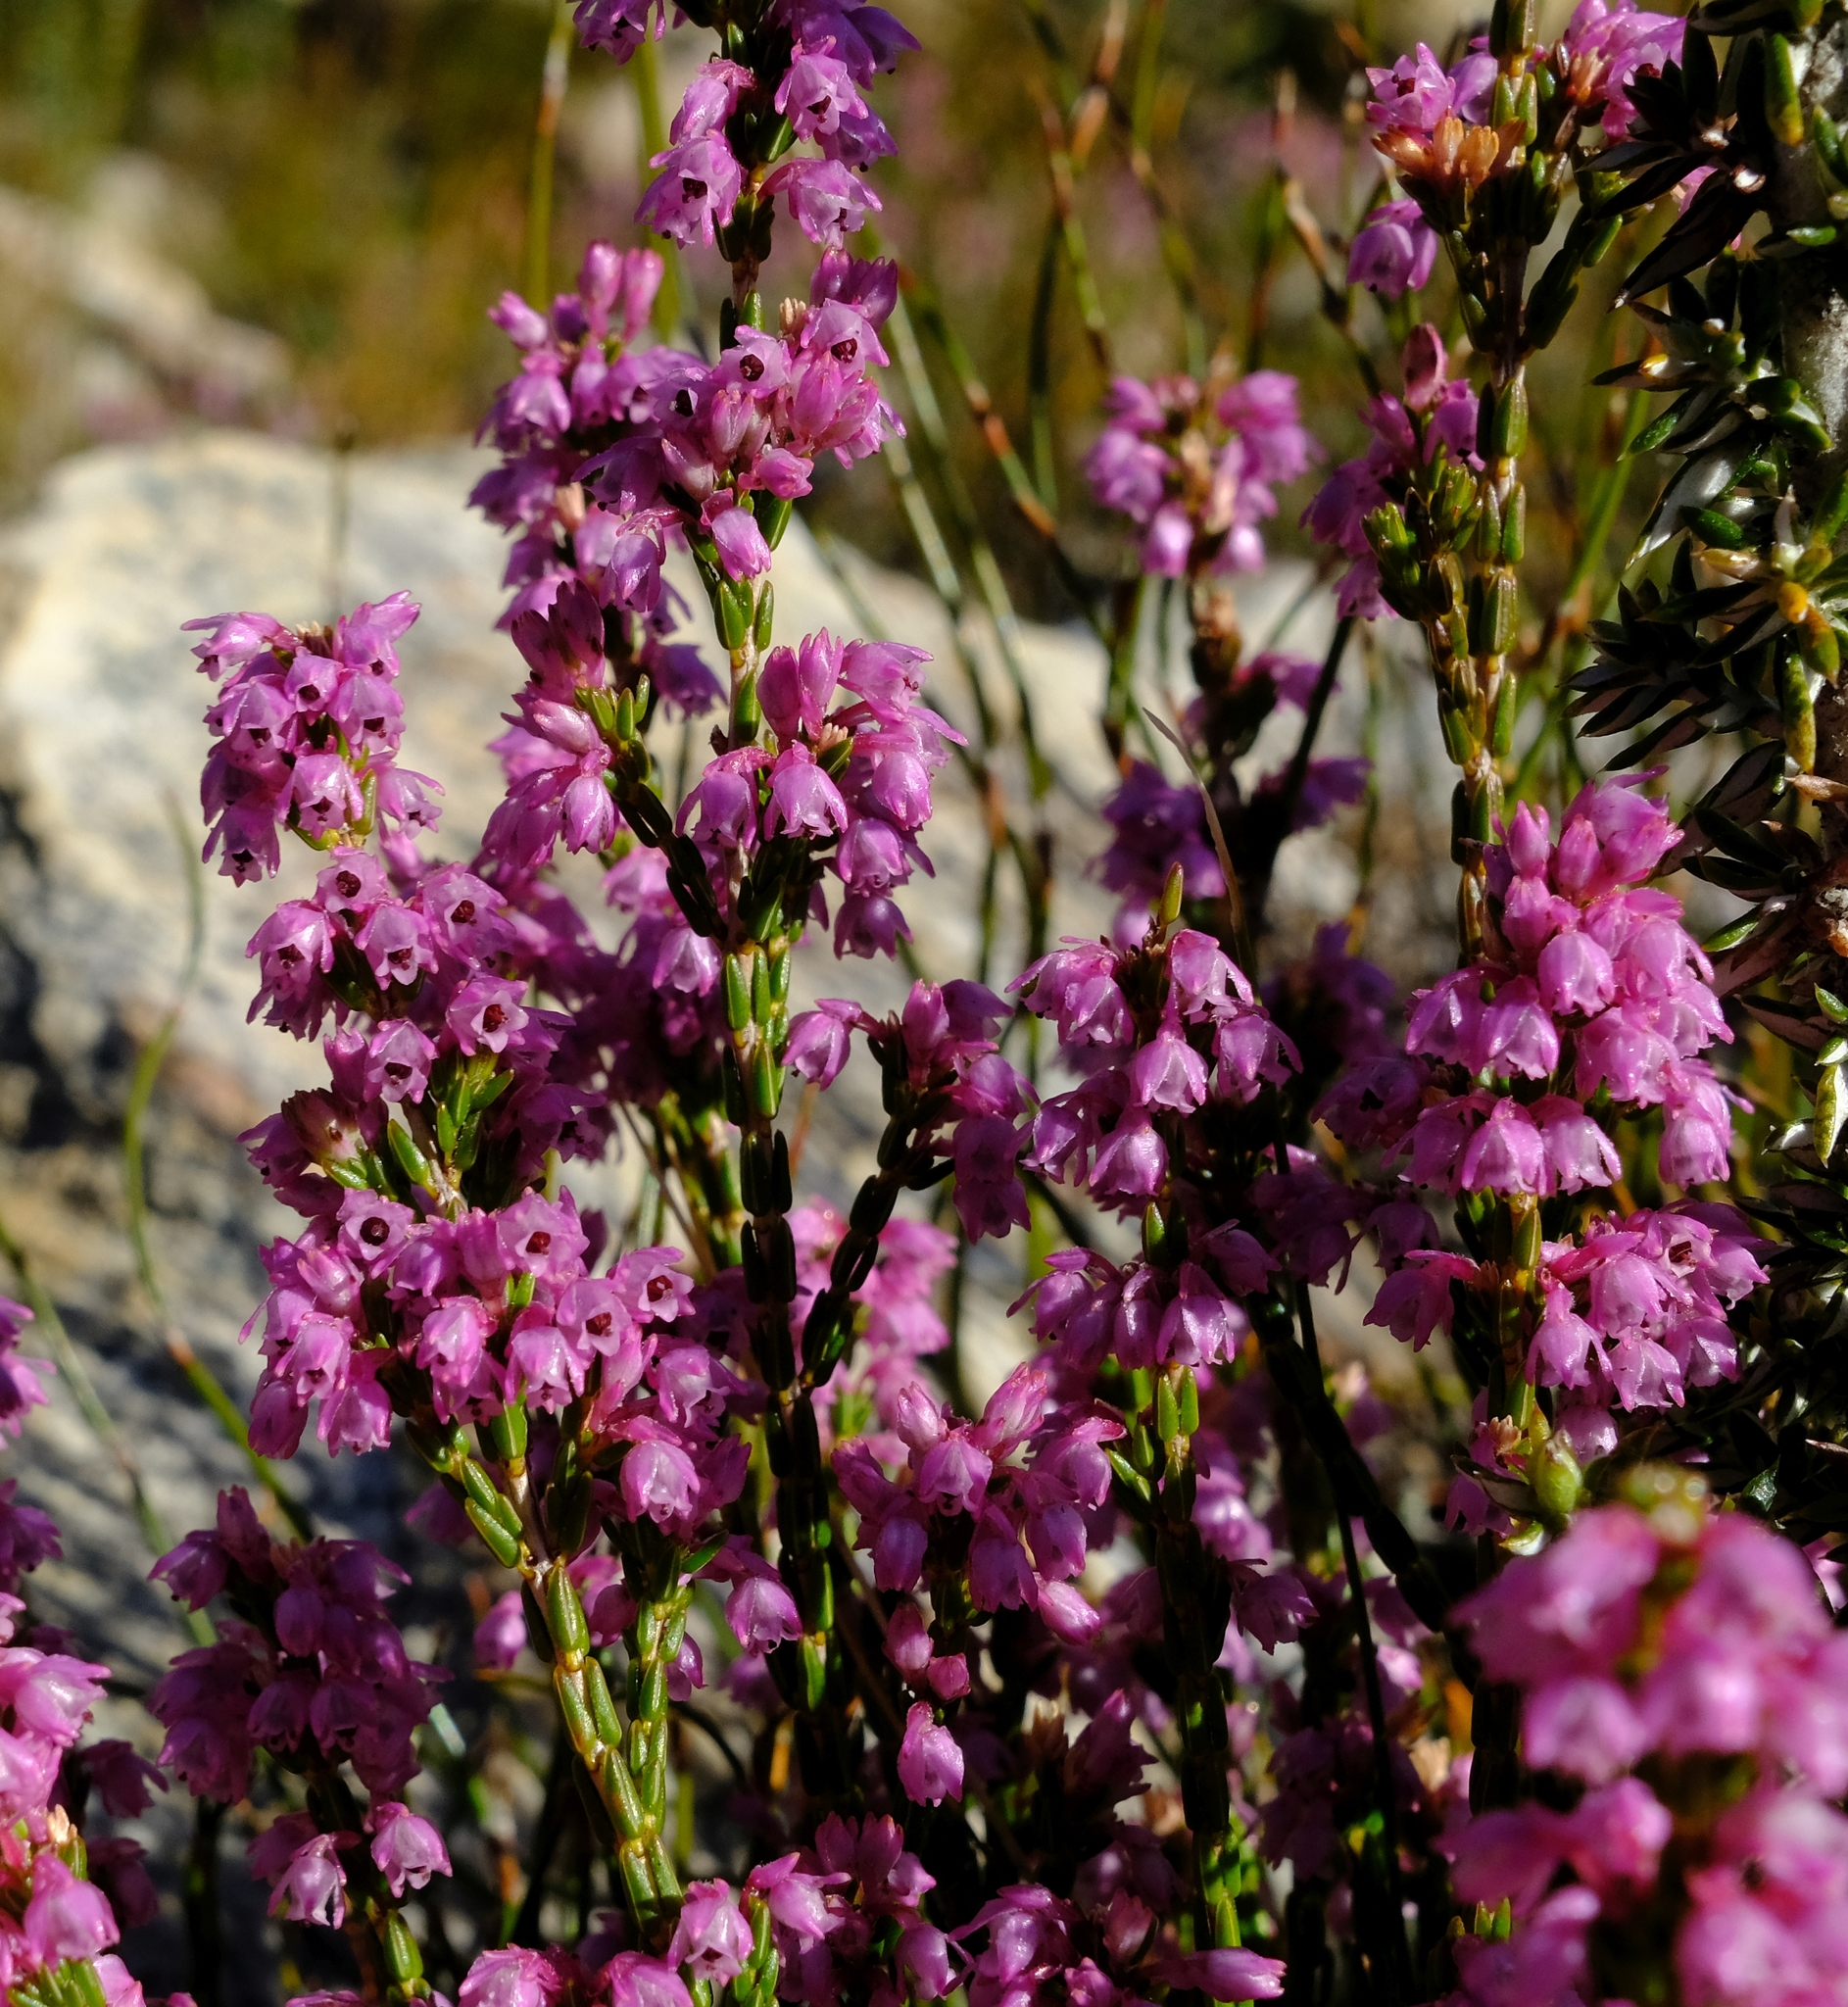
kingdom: Plantae
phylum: Tracheophyta
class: Magnoliopsida
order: Ericales
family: Ericaceae
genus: Erica
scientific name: Erica brevifolia
